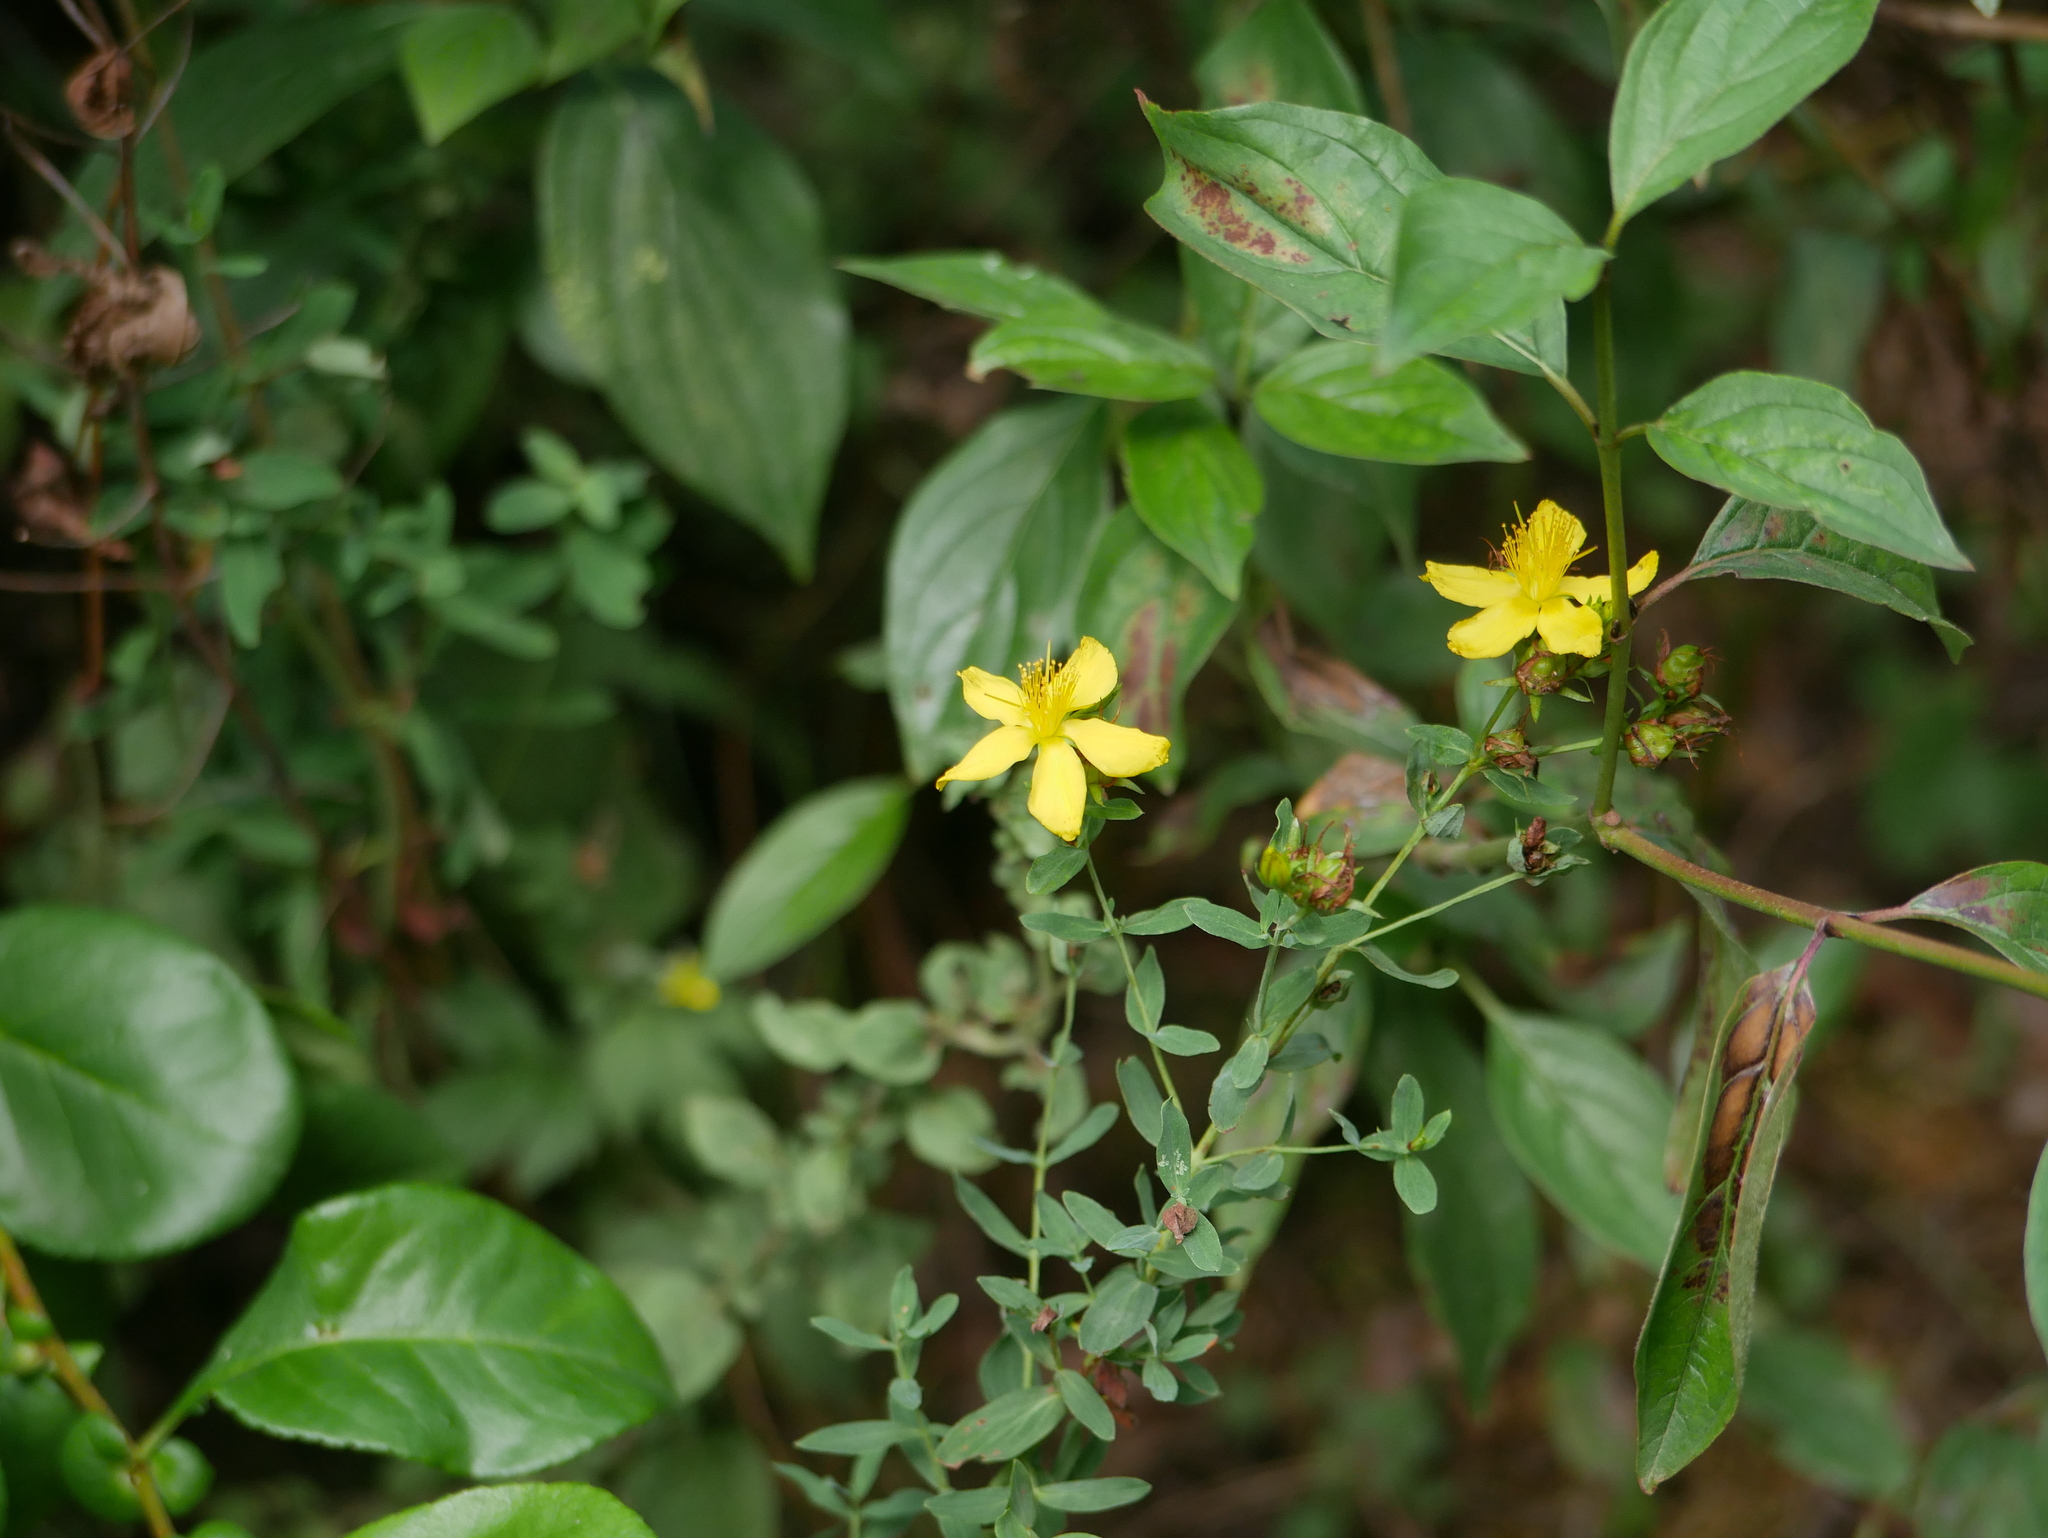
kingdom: Plantae
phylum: Tracheophyta
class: Magnoliopsida
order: Malpighiales
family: Hypericaceae
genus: Hypericum
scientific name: Hypericum perforatum
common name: Common st. johnswort
